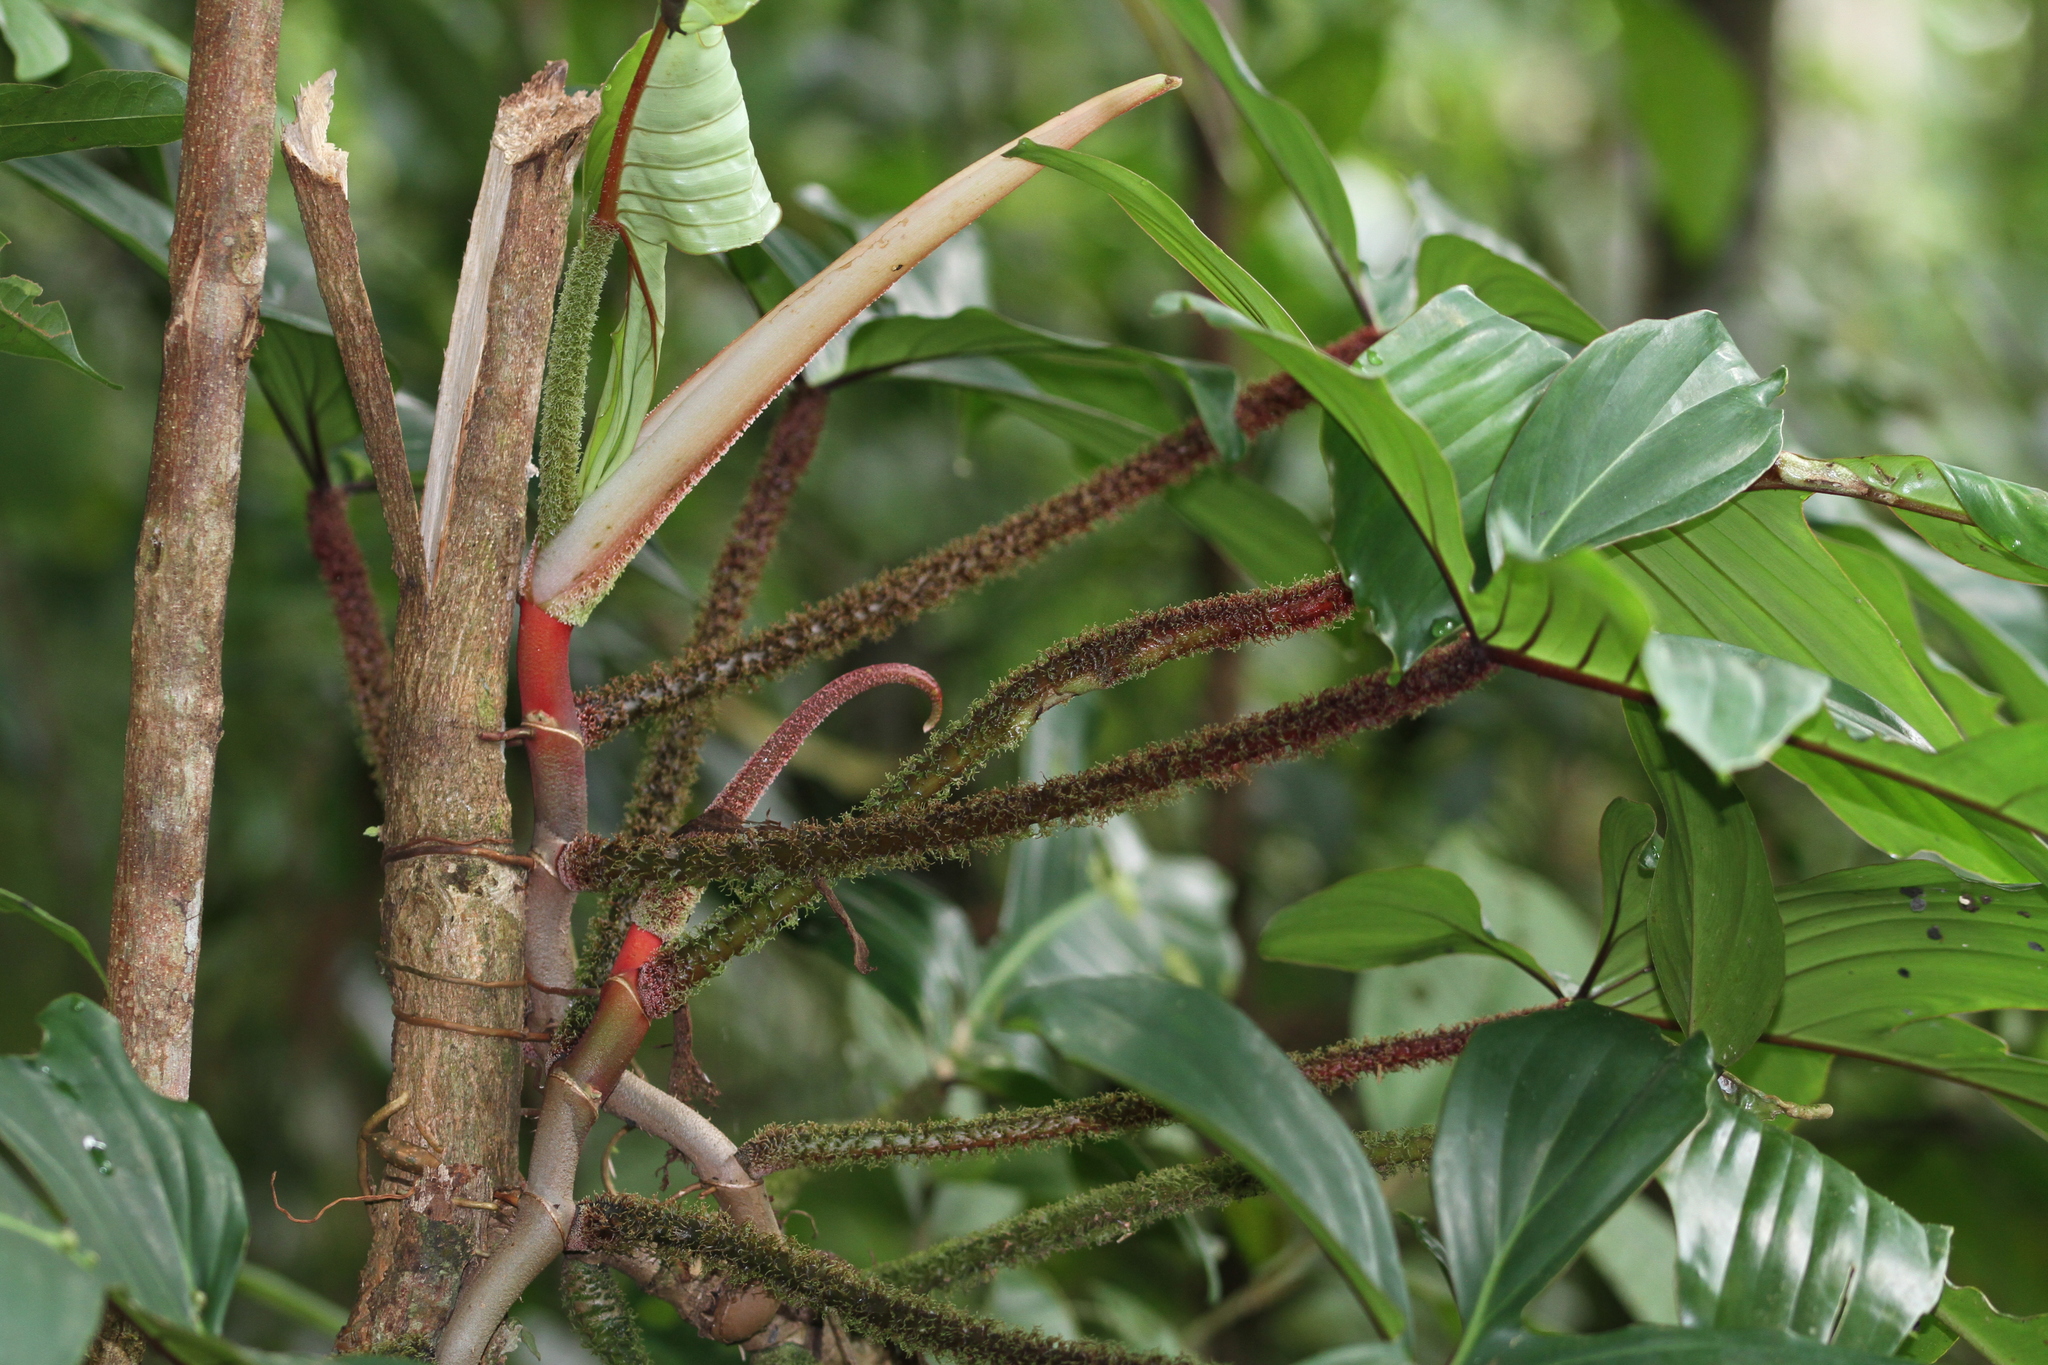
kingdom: Plantae
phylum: Tracheophyta
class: Liliopsida
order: Alismatales
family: Araceae
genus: Philodendron
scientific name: Philodendron squamiferum
